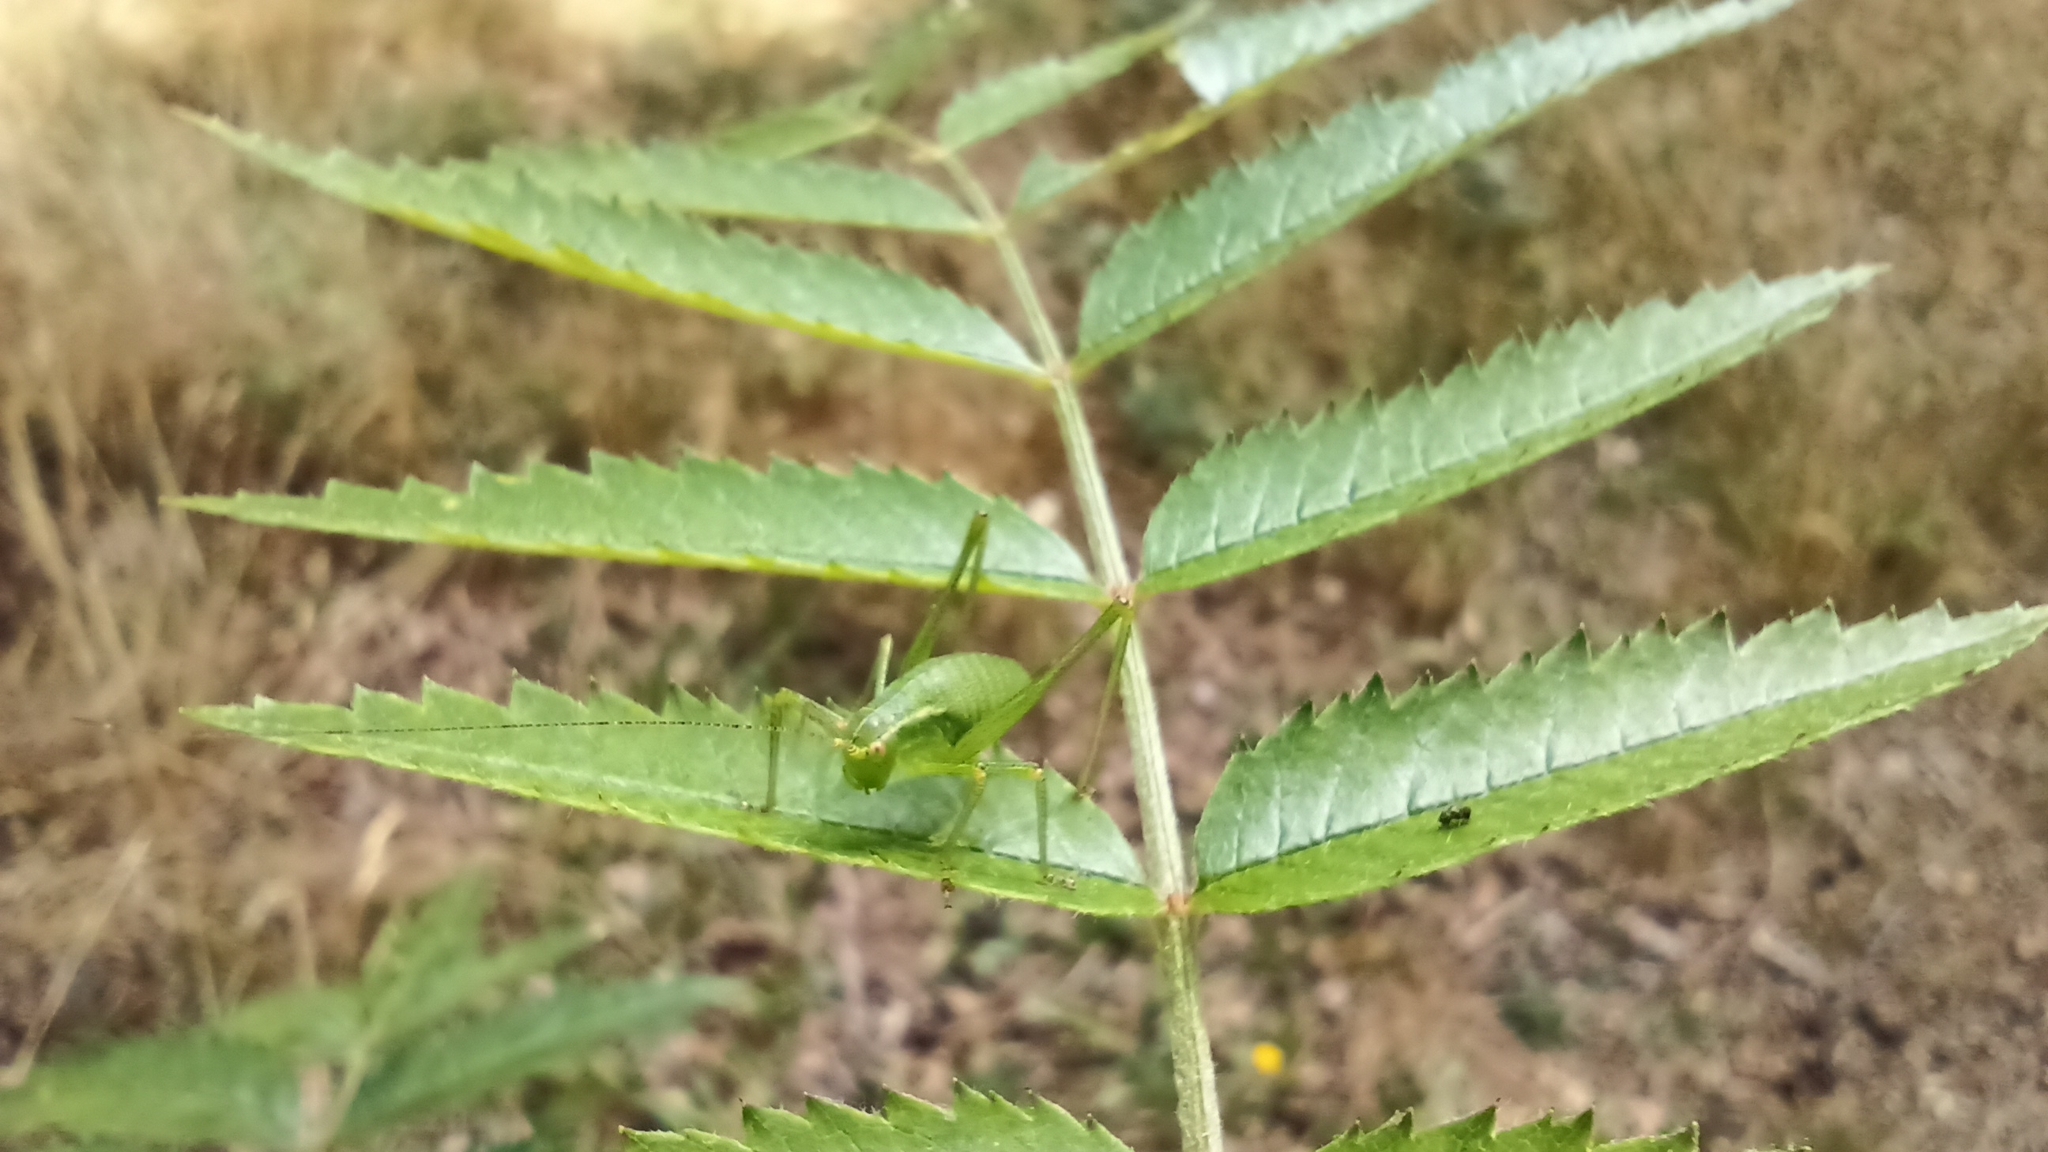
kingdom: Animalia
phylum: Arthropoda
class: Insecta
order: Orthoptera
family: Tettigoniidae
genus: Leptophyes
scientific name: Leptophyes punctatissima
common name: Speckled bush-cricket
